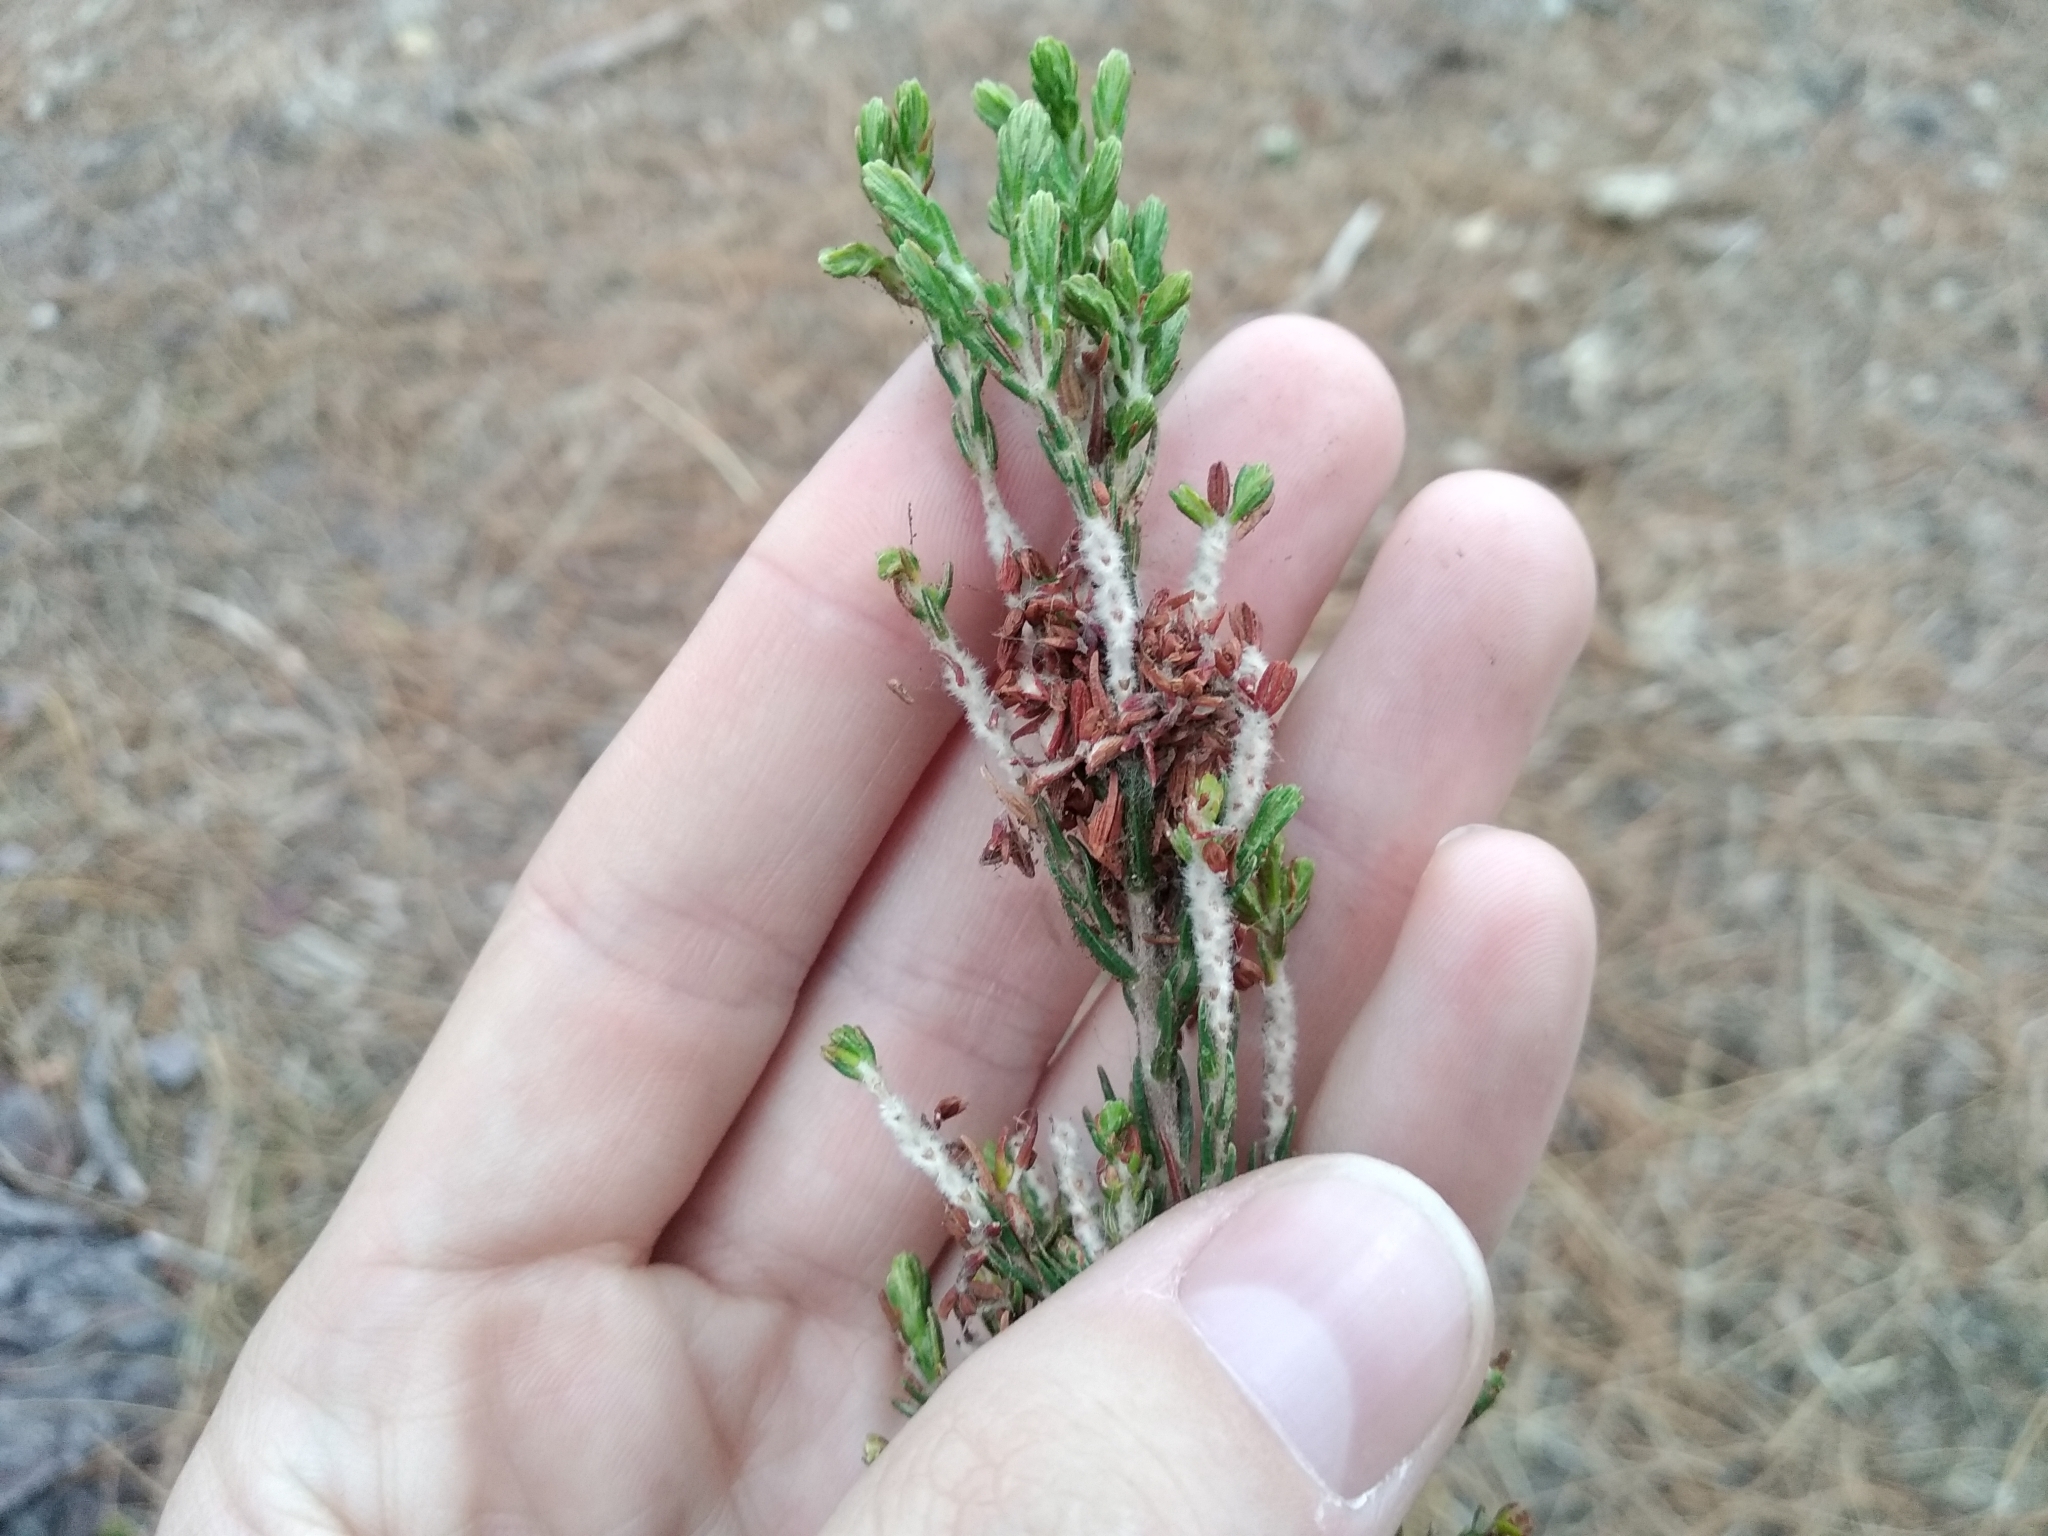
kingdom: Plantae
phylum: Tracheophyta
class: Magnoliopsida
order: Malvales
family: Thymelaeaceae
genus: Passerina
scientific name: Passerina corymbosa
